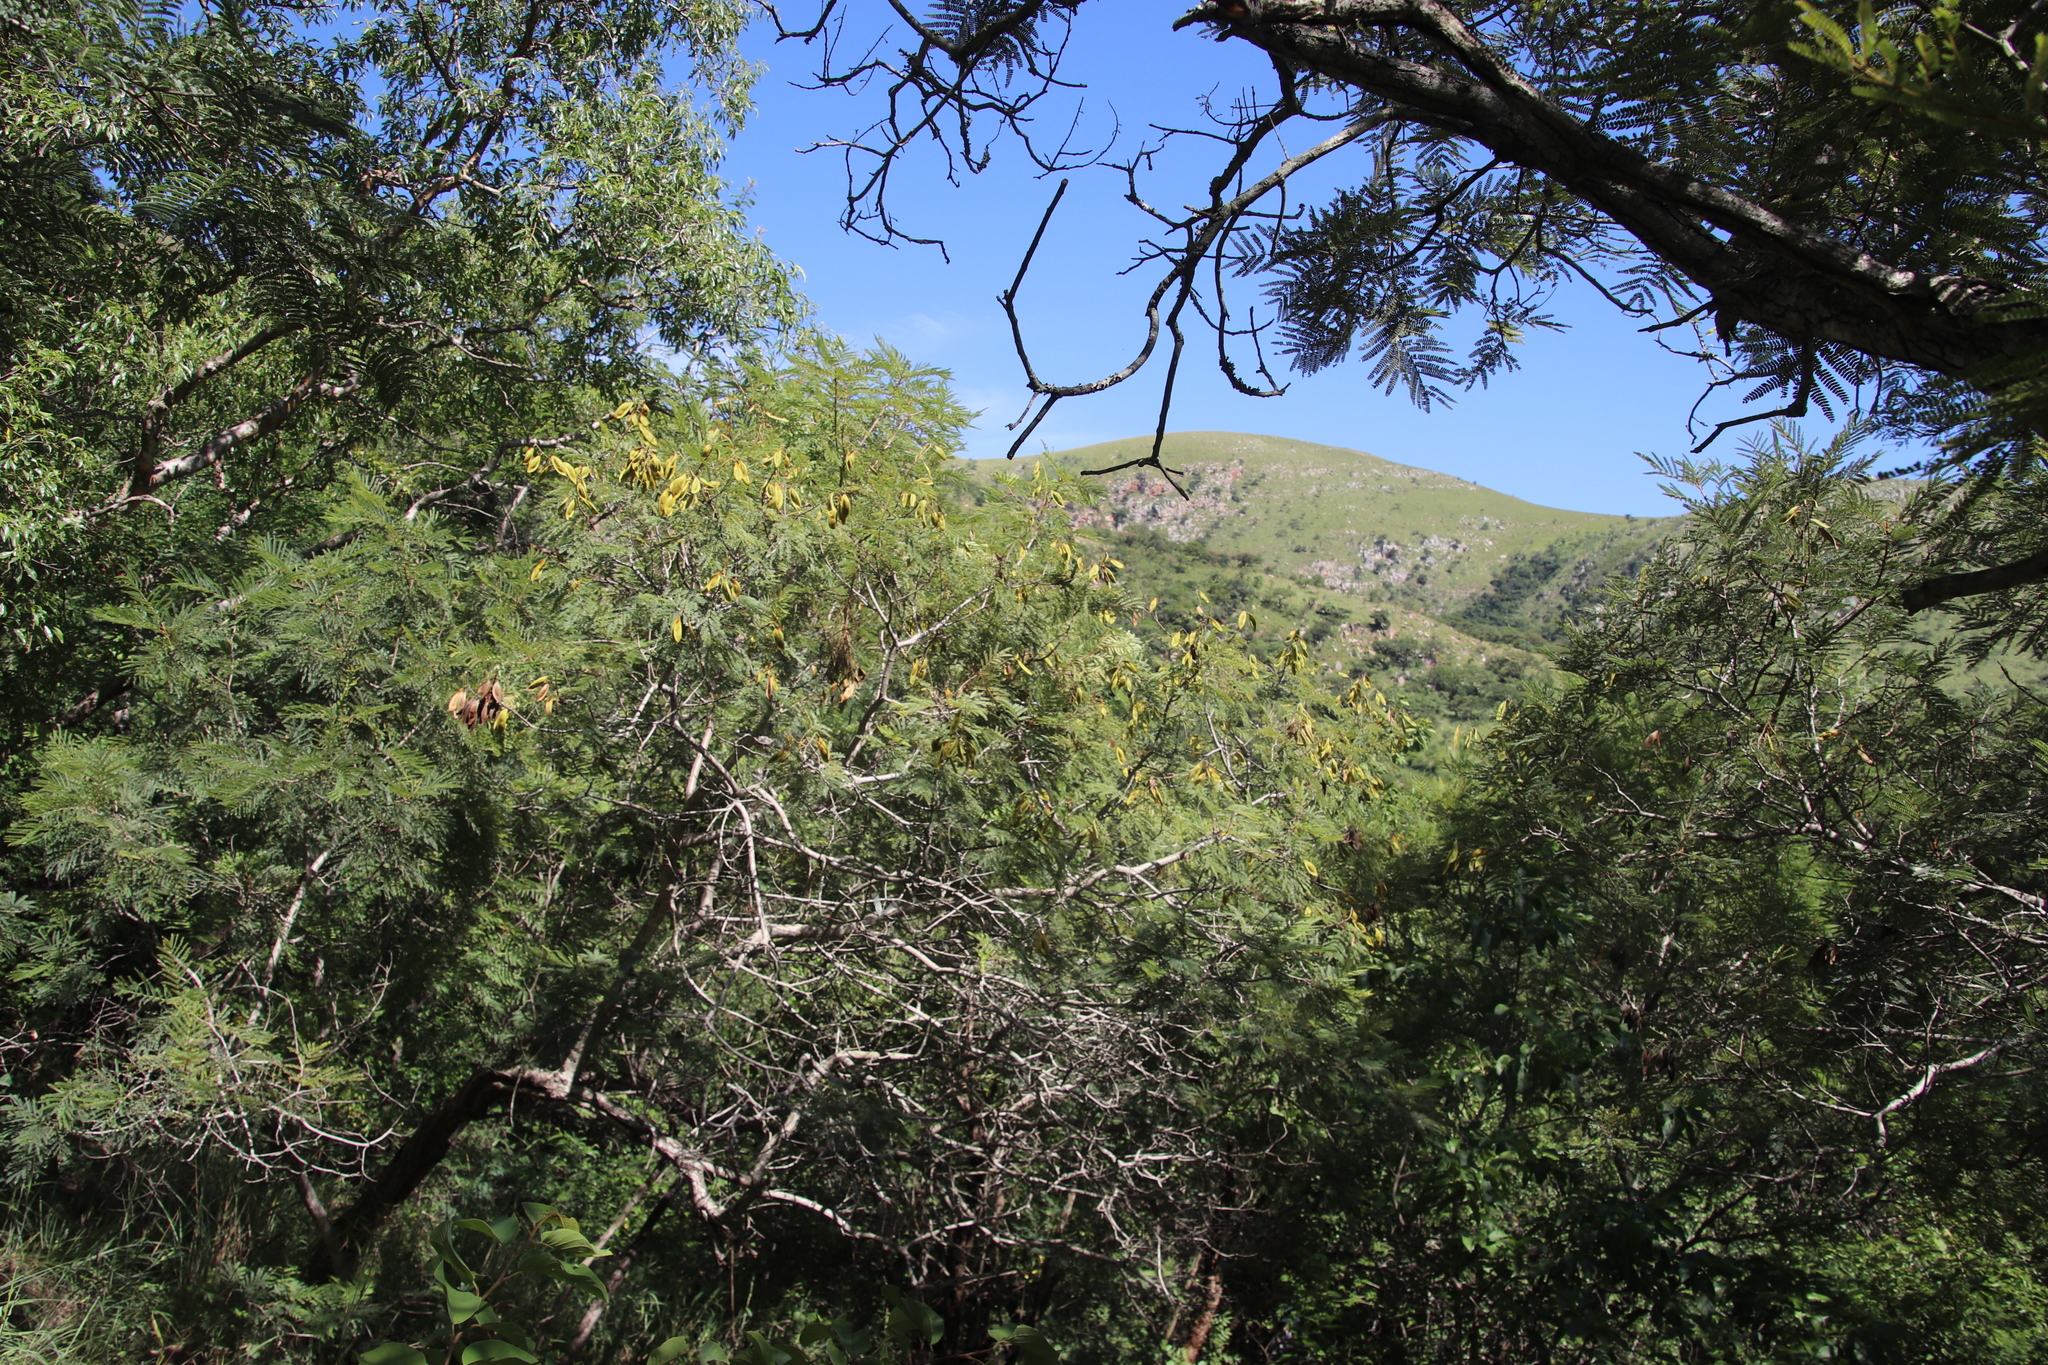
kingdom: Plantae
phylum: Tracheophyta
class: Magnoliopsida
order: Fabales
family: Fabaceae
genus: Peltophorum
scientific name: Peltophorum africanum
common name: African black wattle
